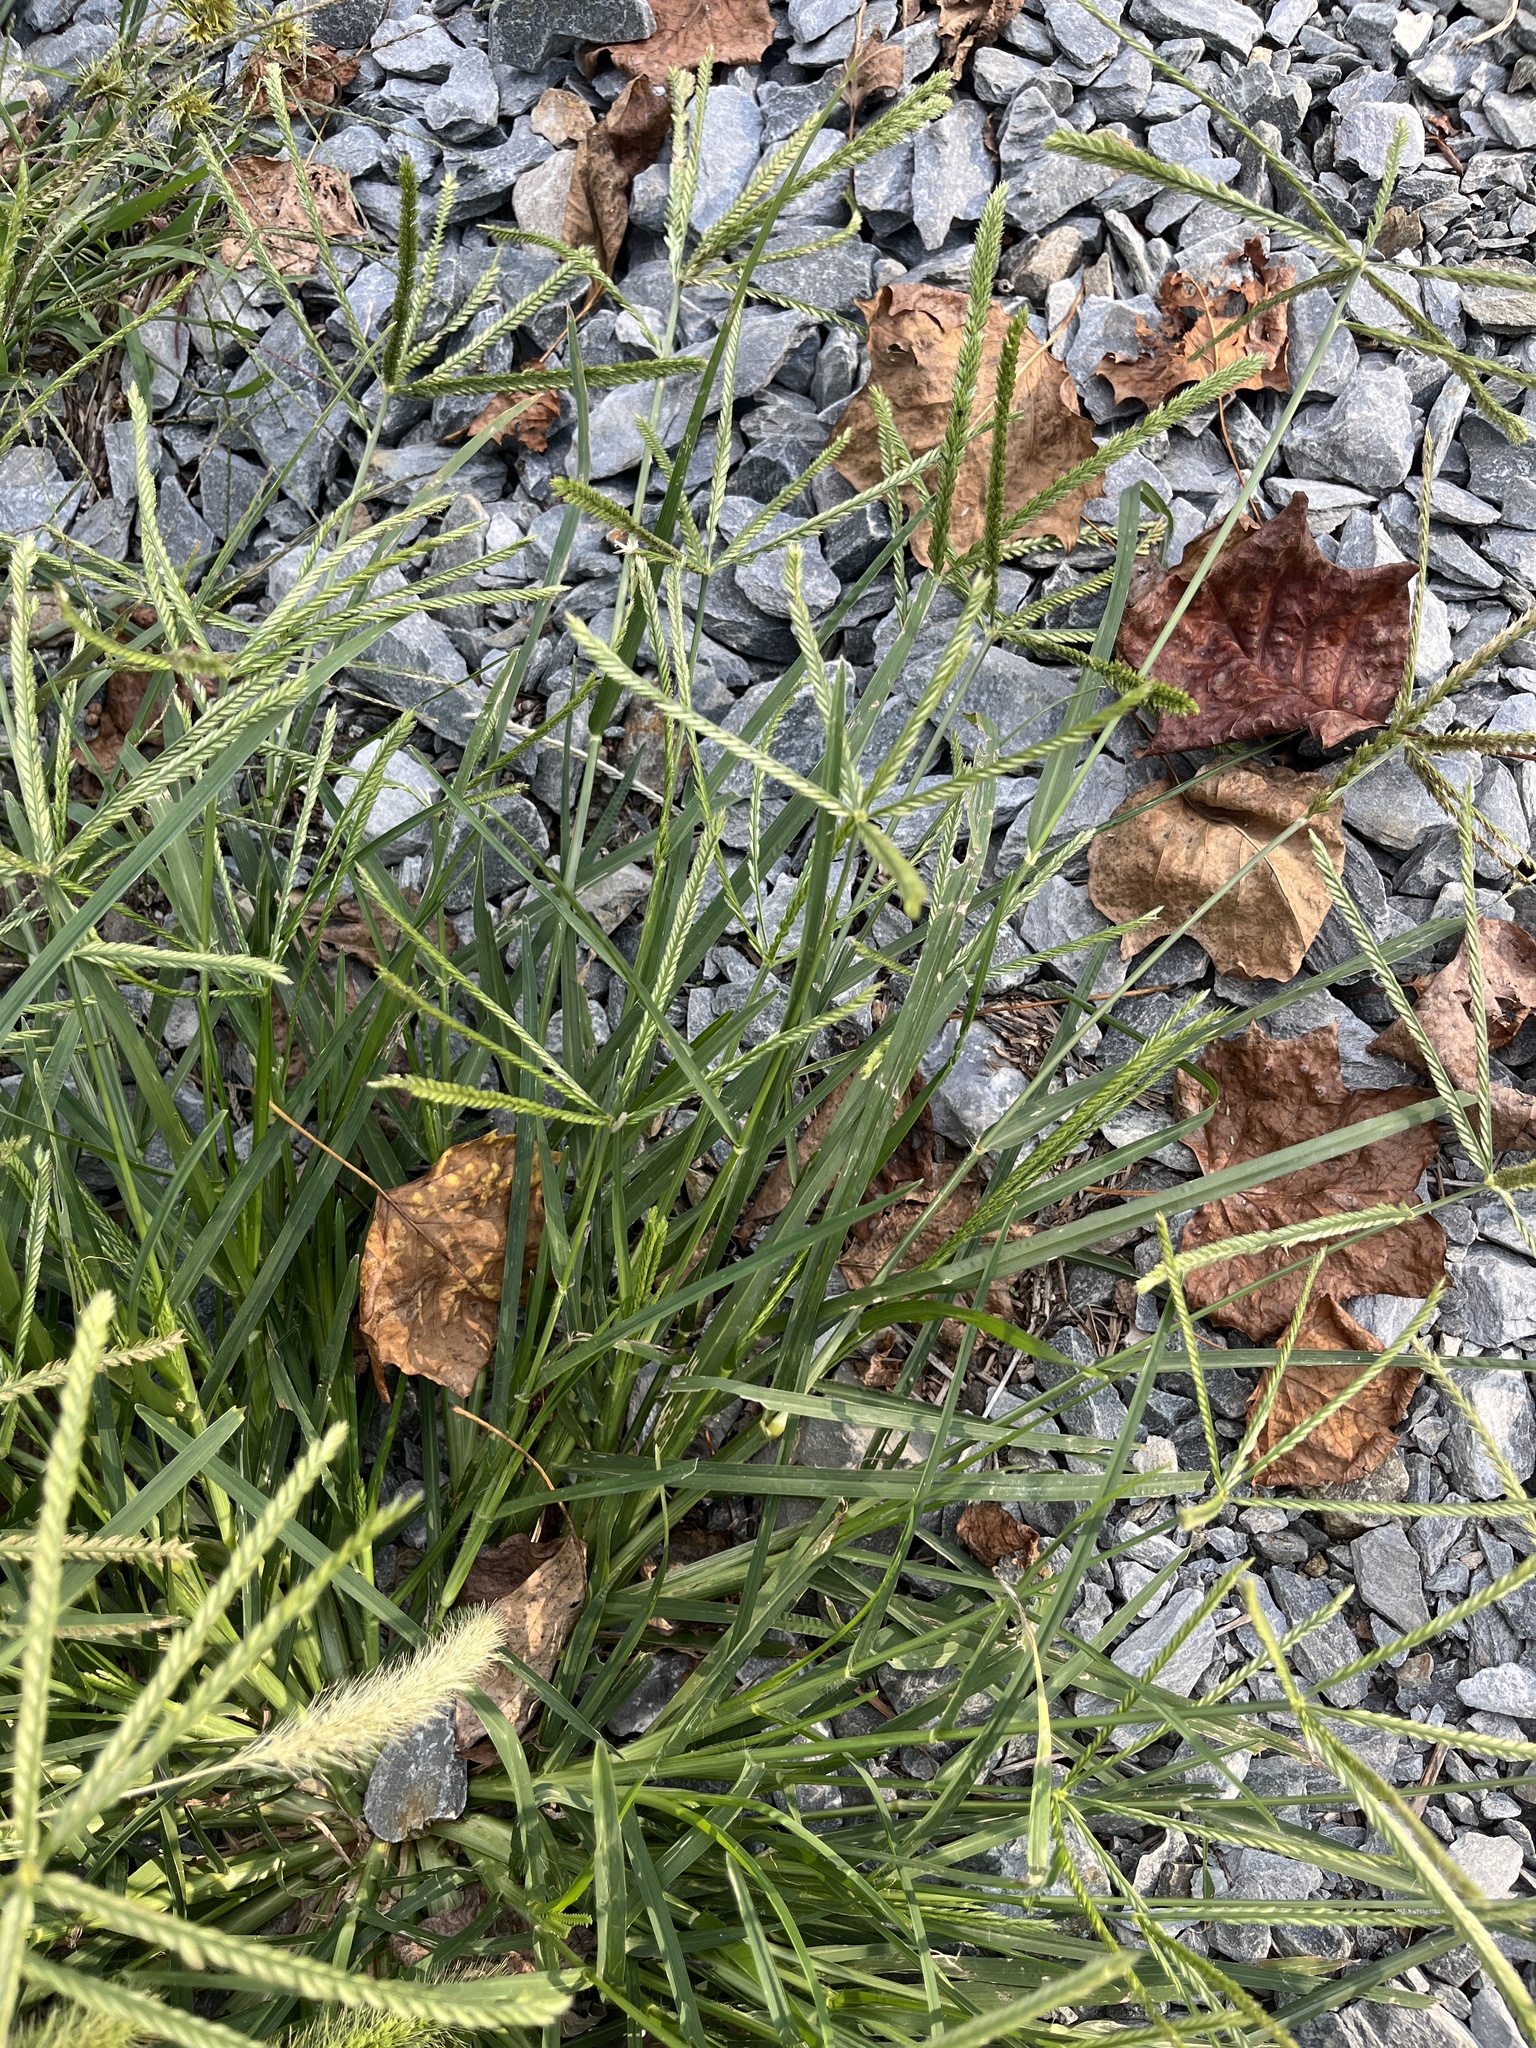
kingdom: Plantae
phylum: Tracheophyta
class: Liliopsida
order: Poales
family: Poaceae
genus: Eleusine
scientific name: Eleusine indica
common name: Yard-grass
